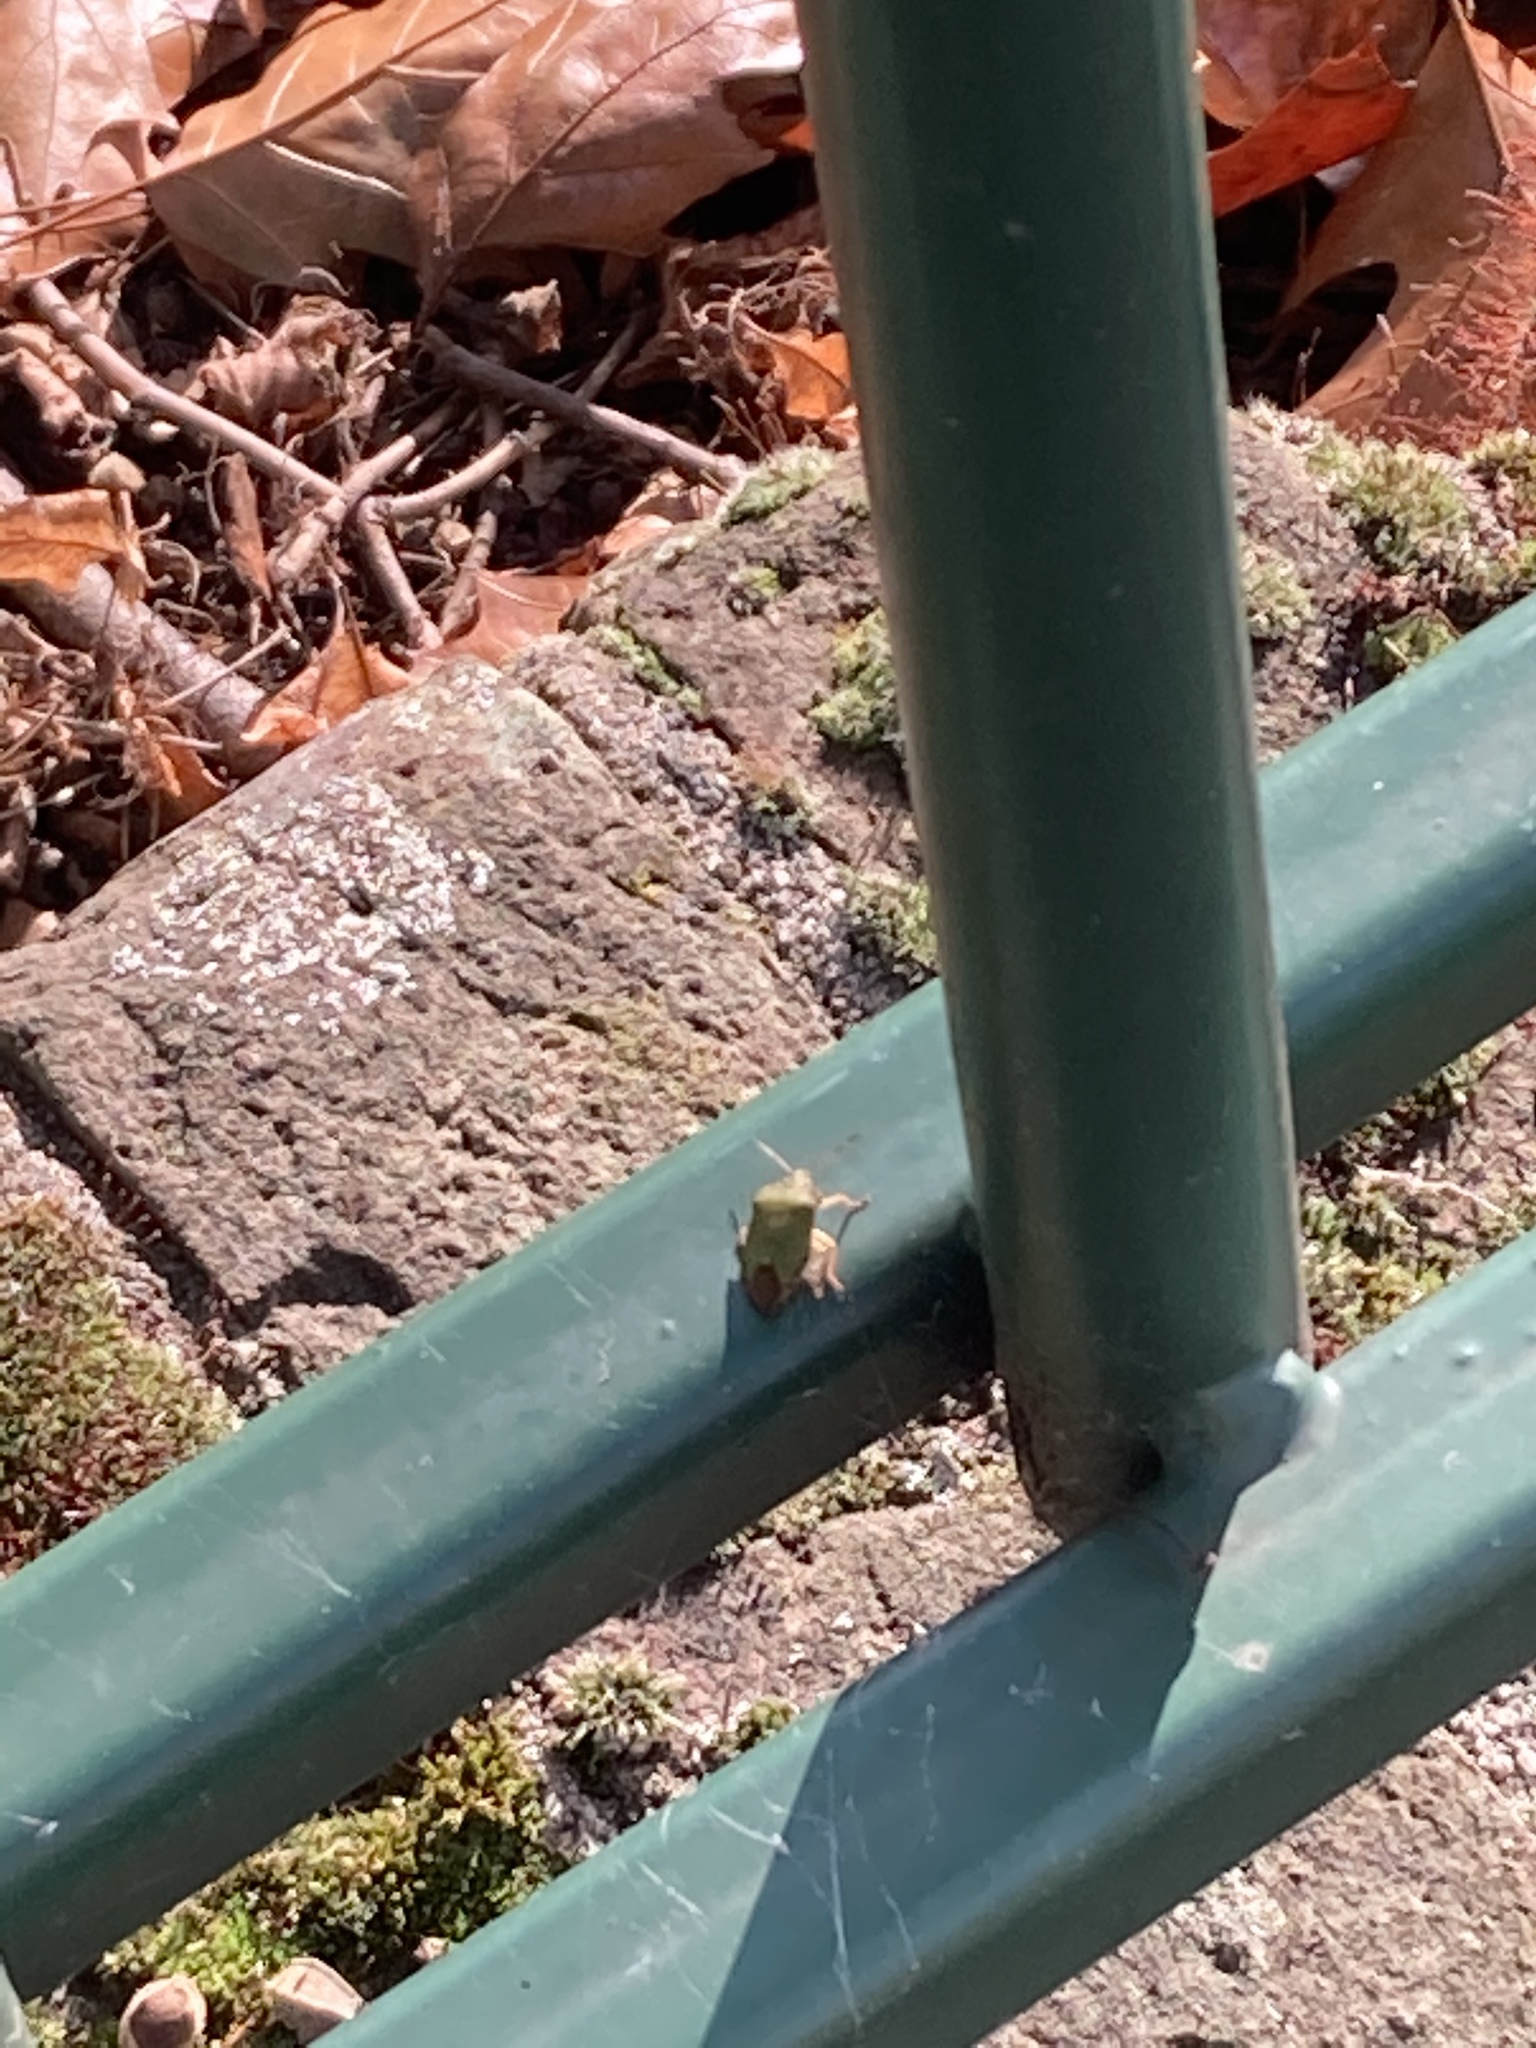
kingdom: Animalia
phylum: Arthropoda
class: Insecta
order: Hemiptera
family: Pentatomidae
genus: Palomena
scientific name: Palomena prasina
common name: Green shieldbug
